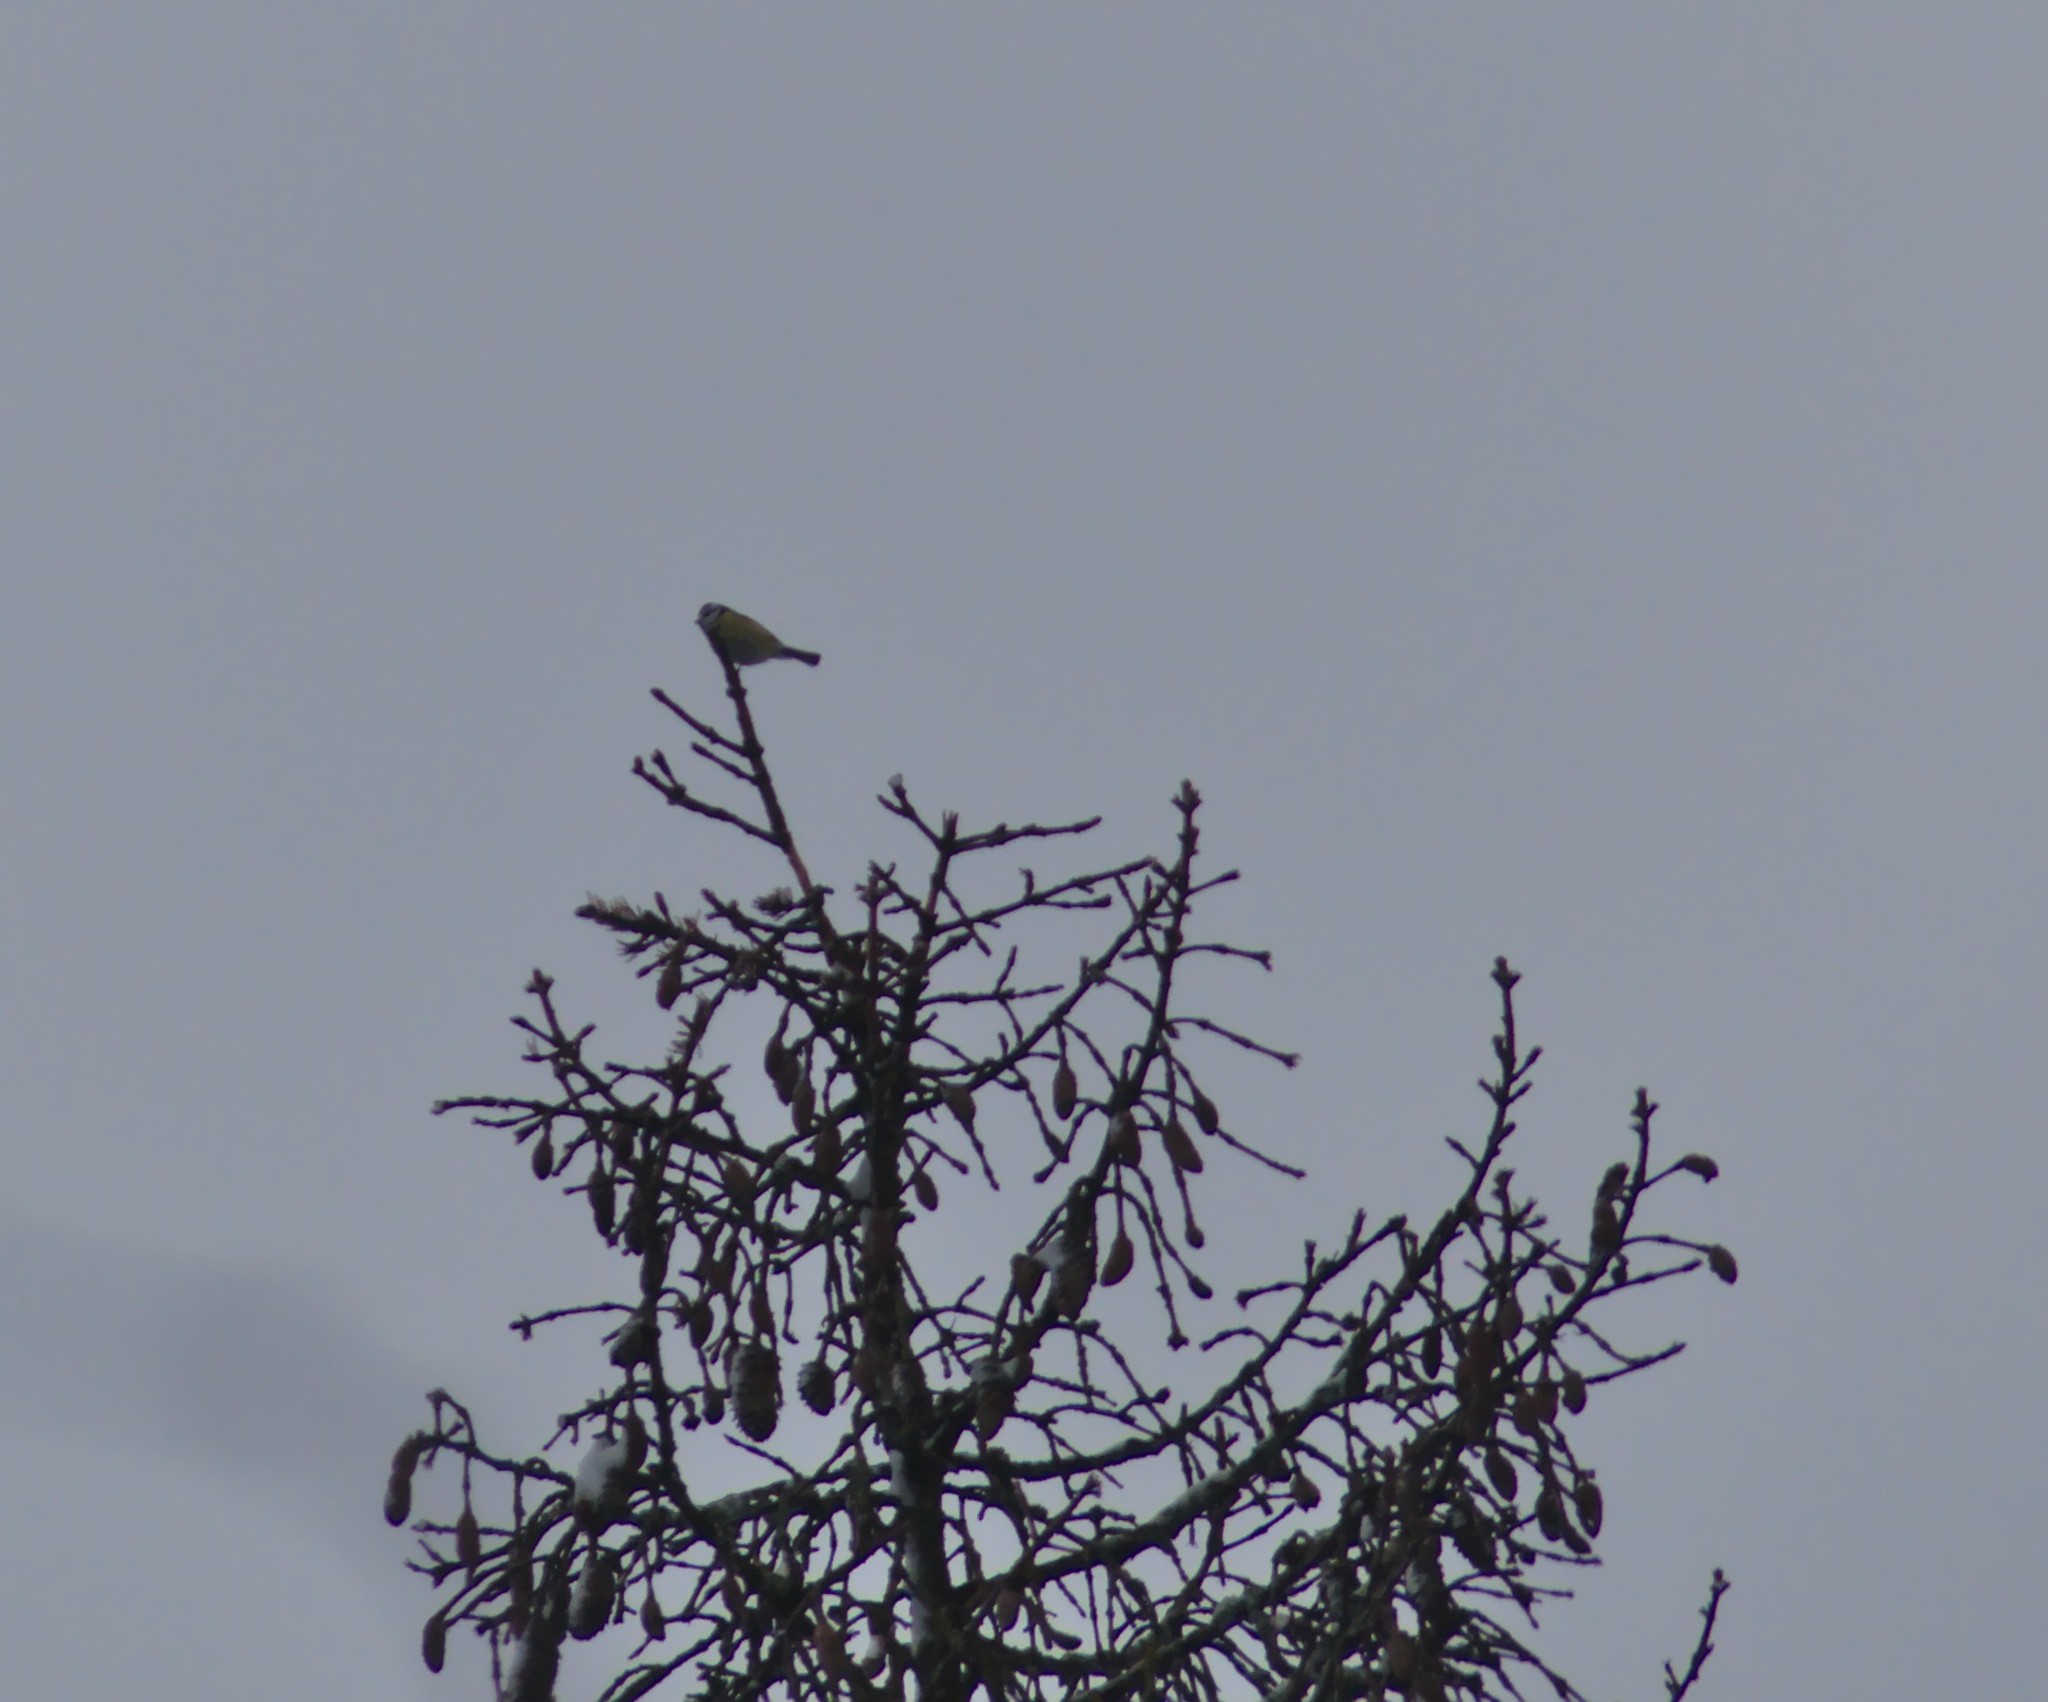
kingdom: Animalia
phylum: Chordata
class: Aves
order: Passeriformes
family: Paridae
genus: Cyanistes
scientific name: Cyanistes caeruleus
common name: Eurasian blue tit
